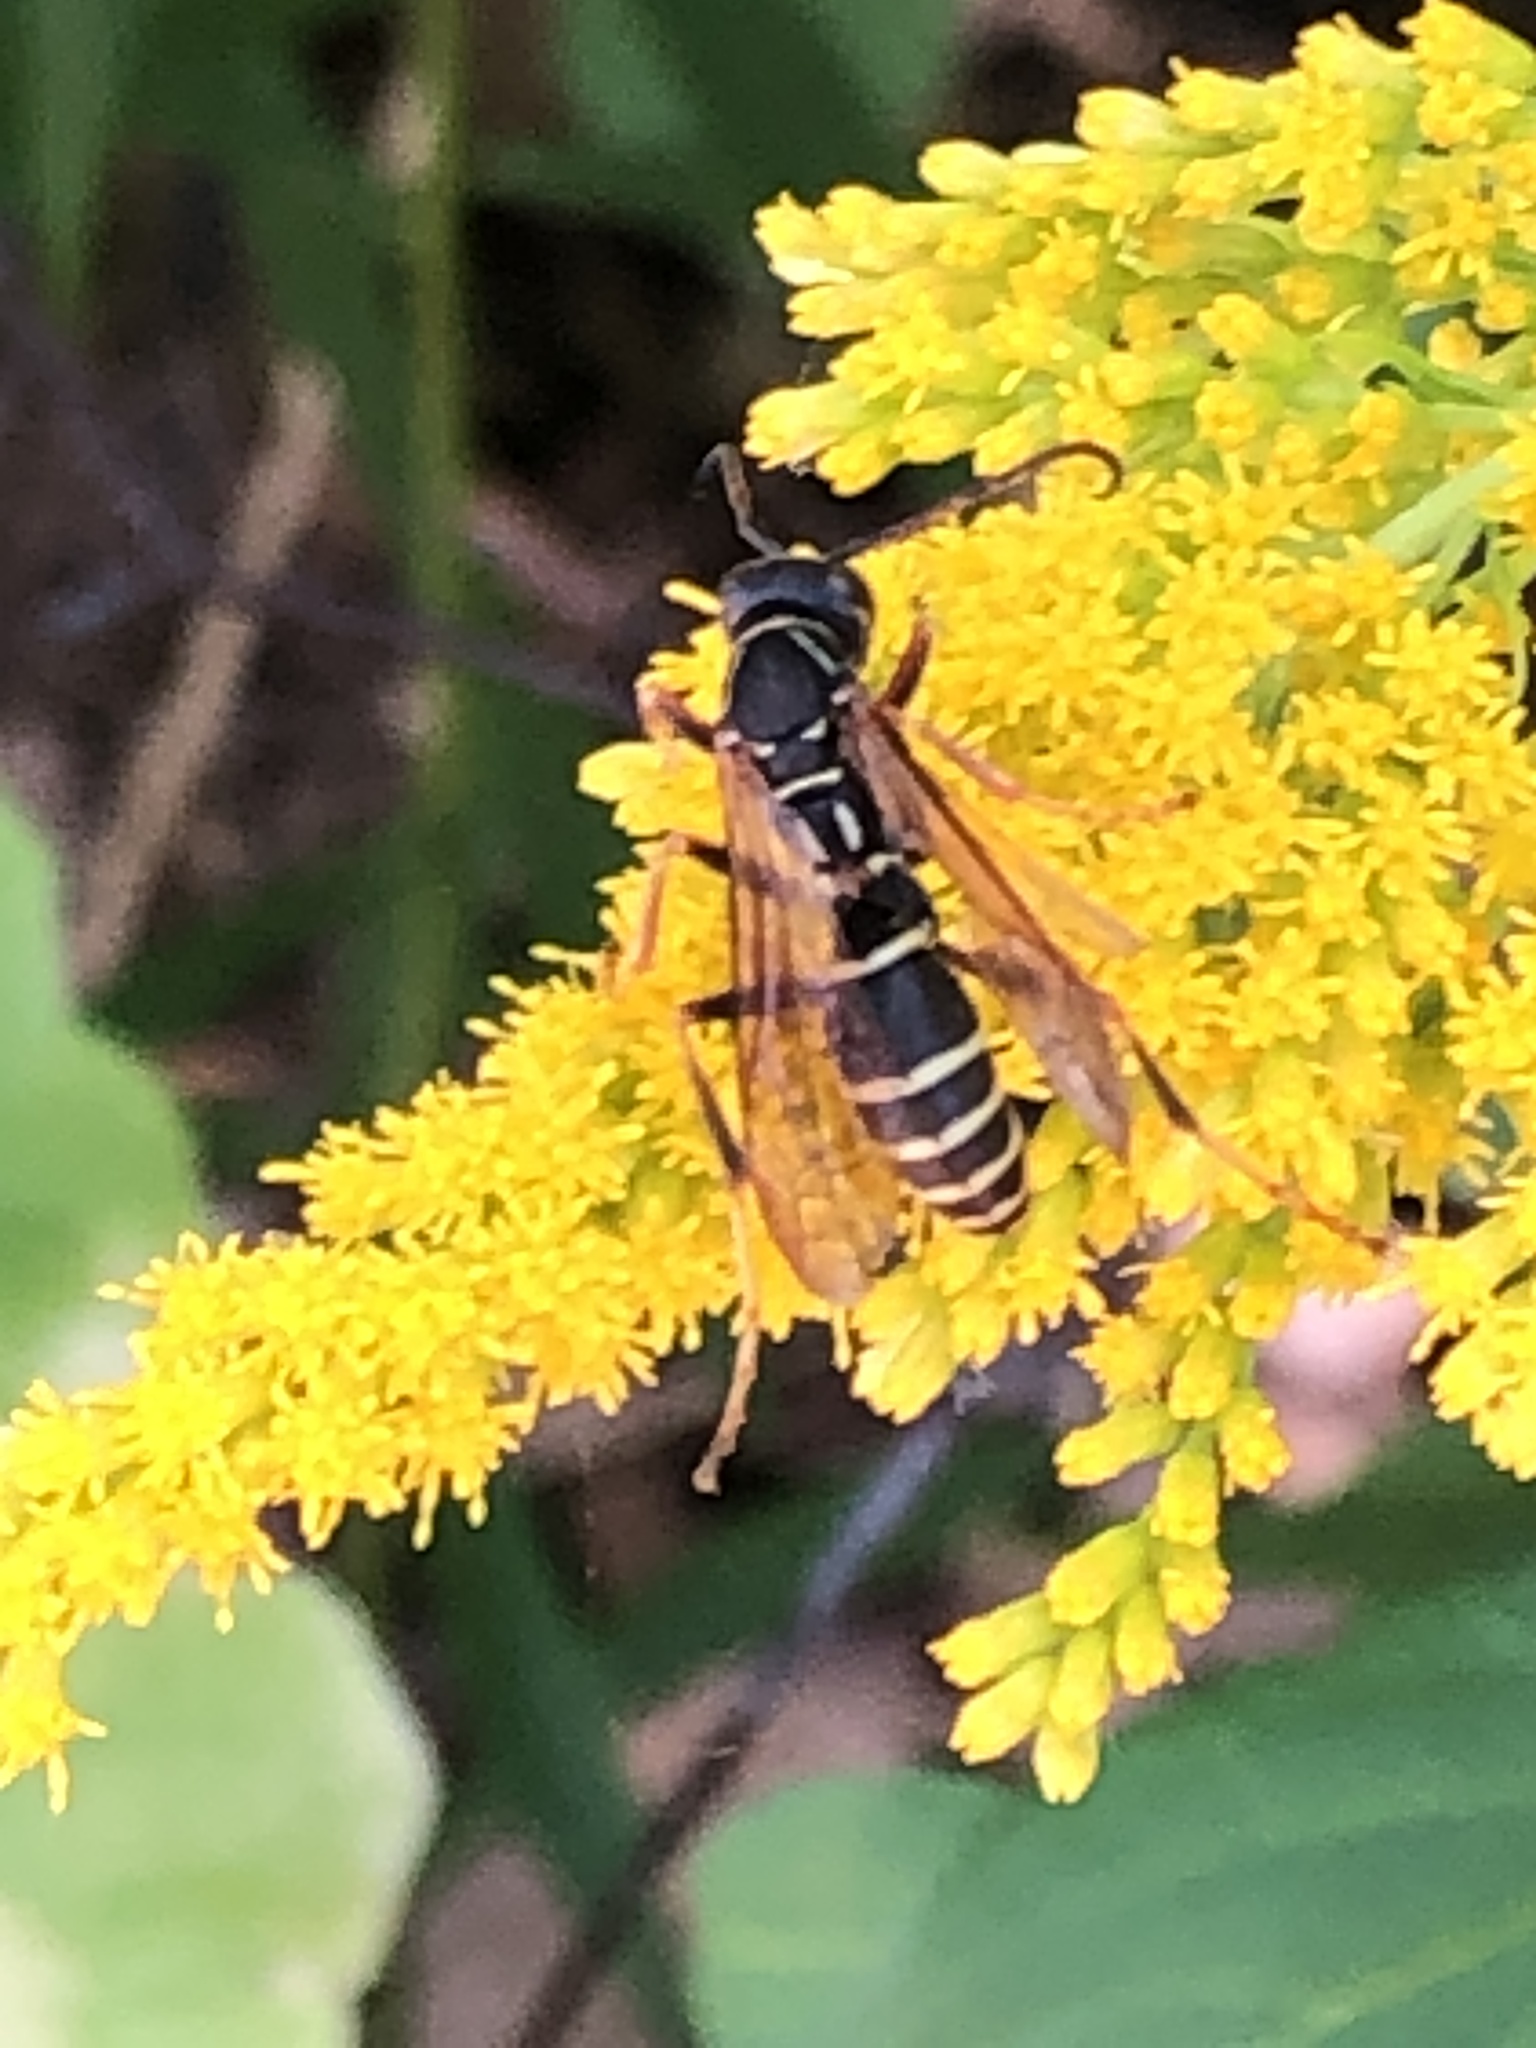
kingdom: Animalia
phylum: Arthropoda
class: Insecta
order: Hymenoptera
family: Eumenidae
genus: Polistes
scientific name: Polistes fuscatus
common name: Dark paper wasp
